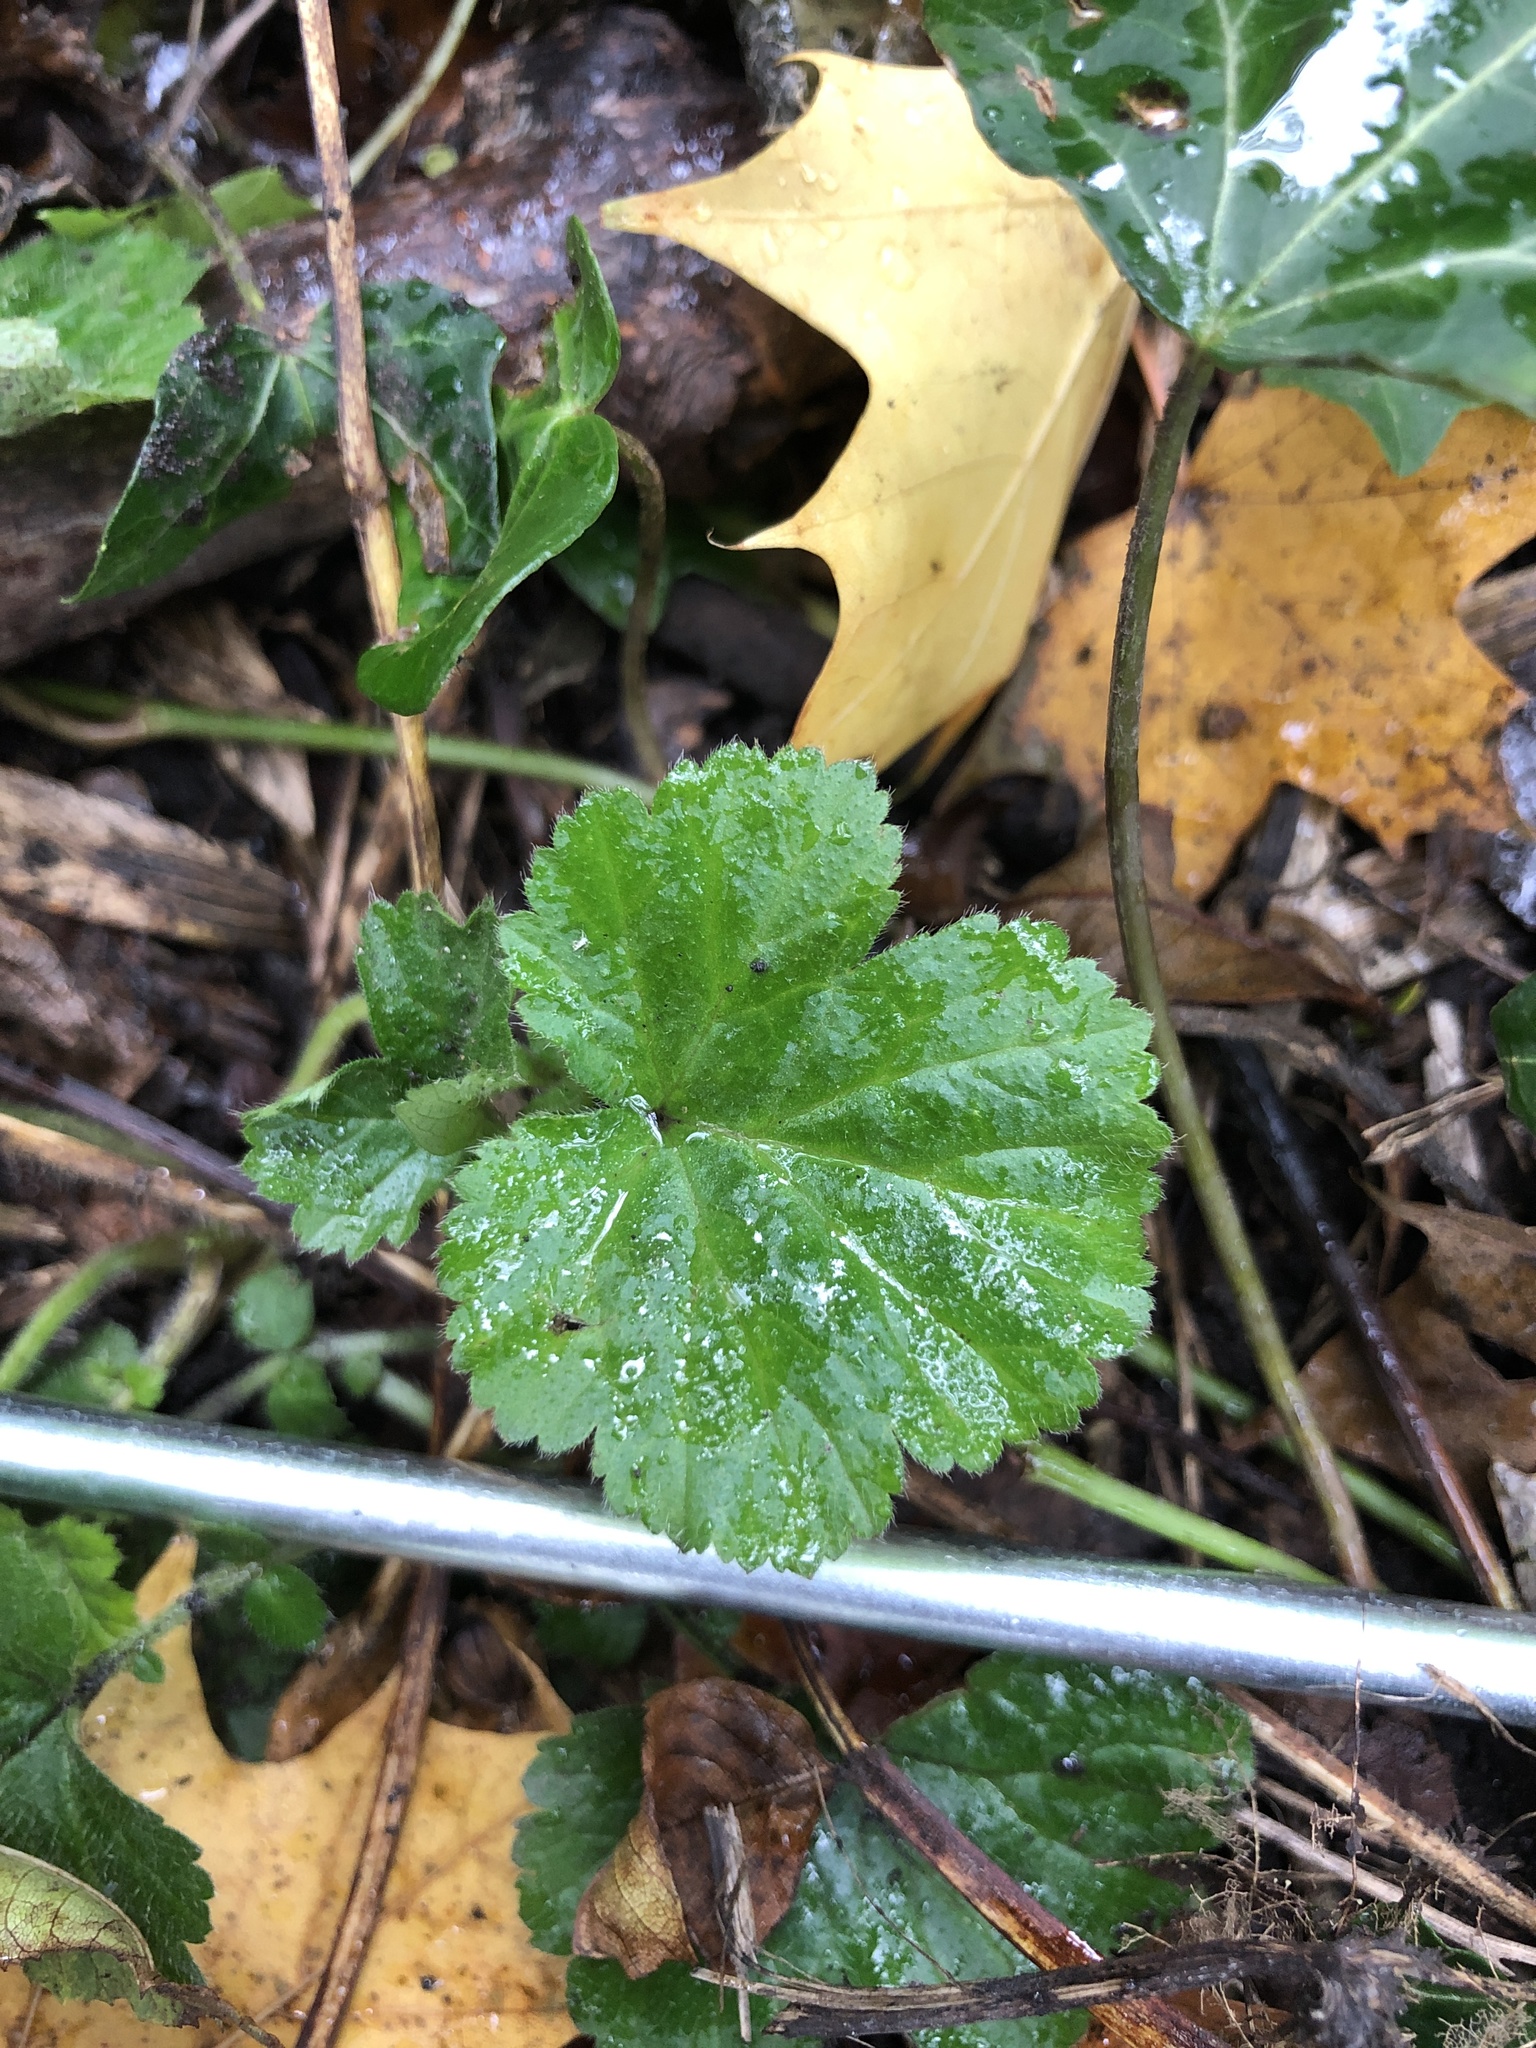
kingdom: Plantae
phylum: Tracheophyta
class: Magnoliopsida
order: Rosales
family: Rosaceae
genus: Geum
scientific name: Geum urbanum
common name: Wood avens
